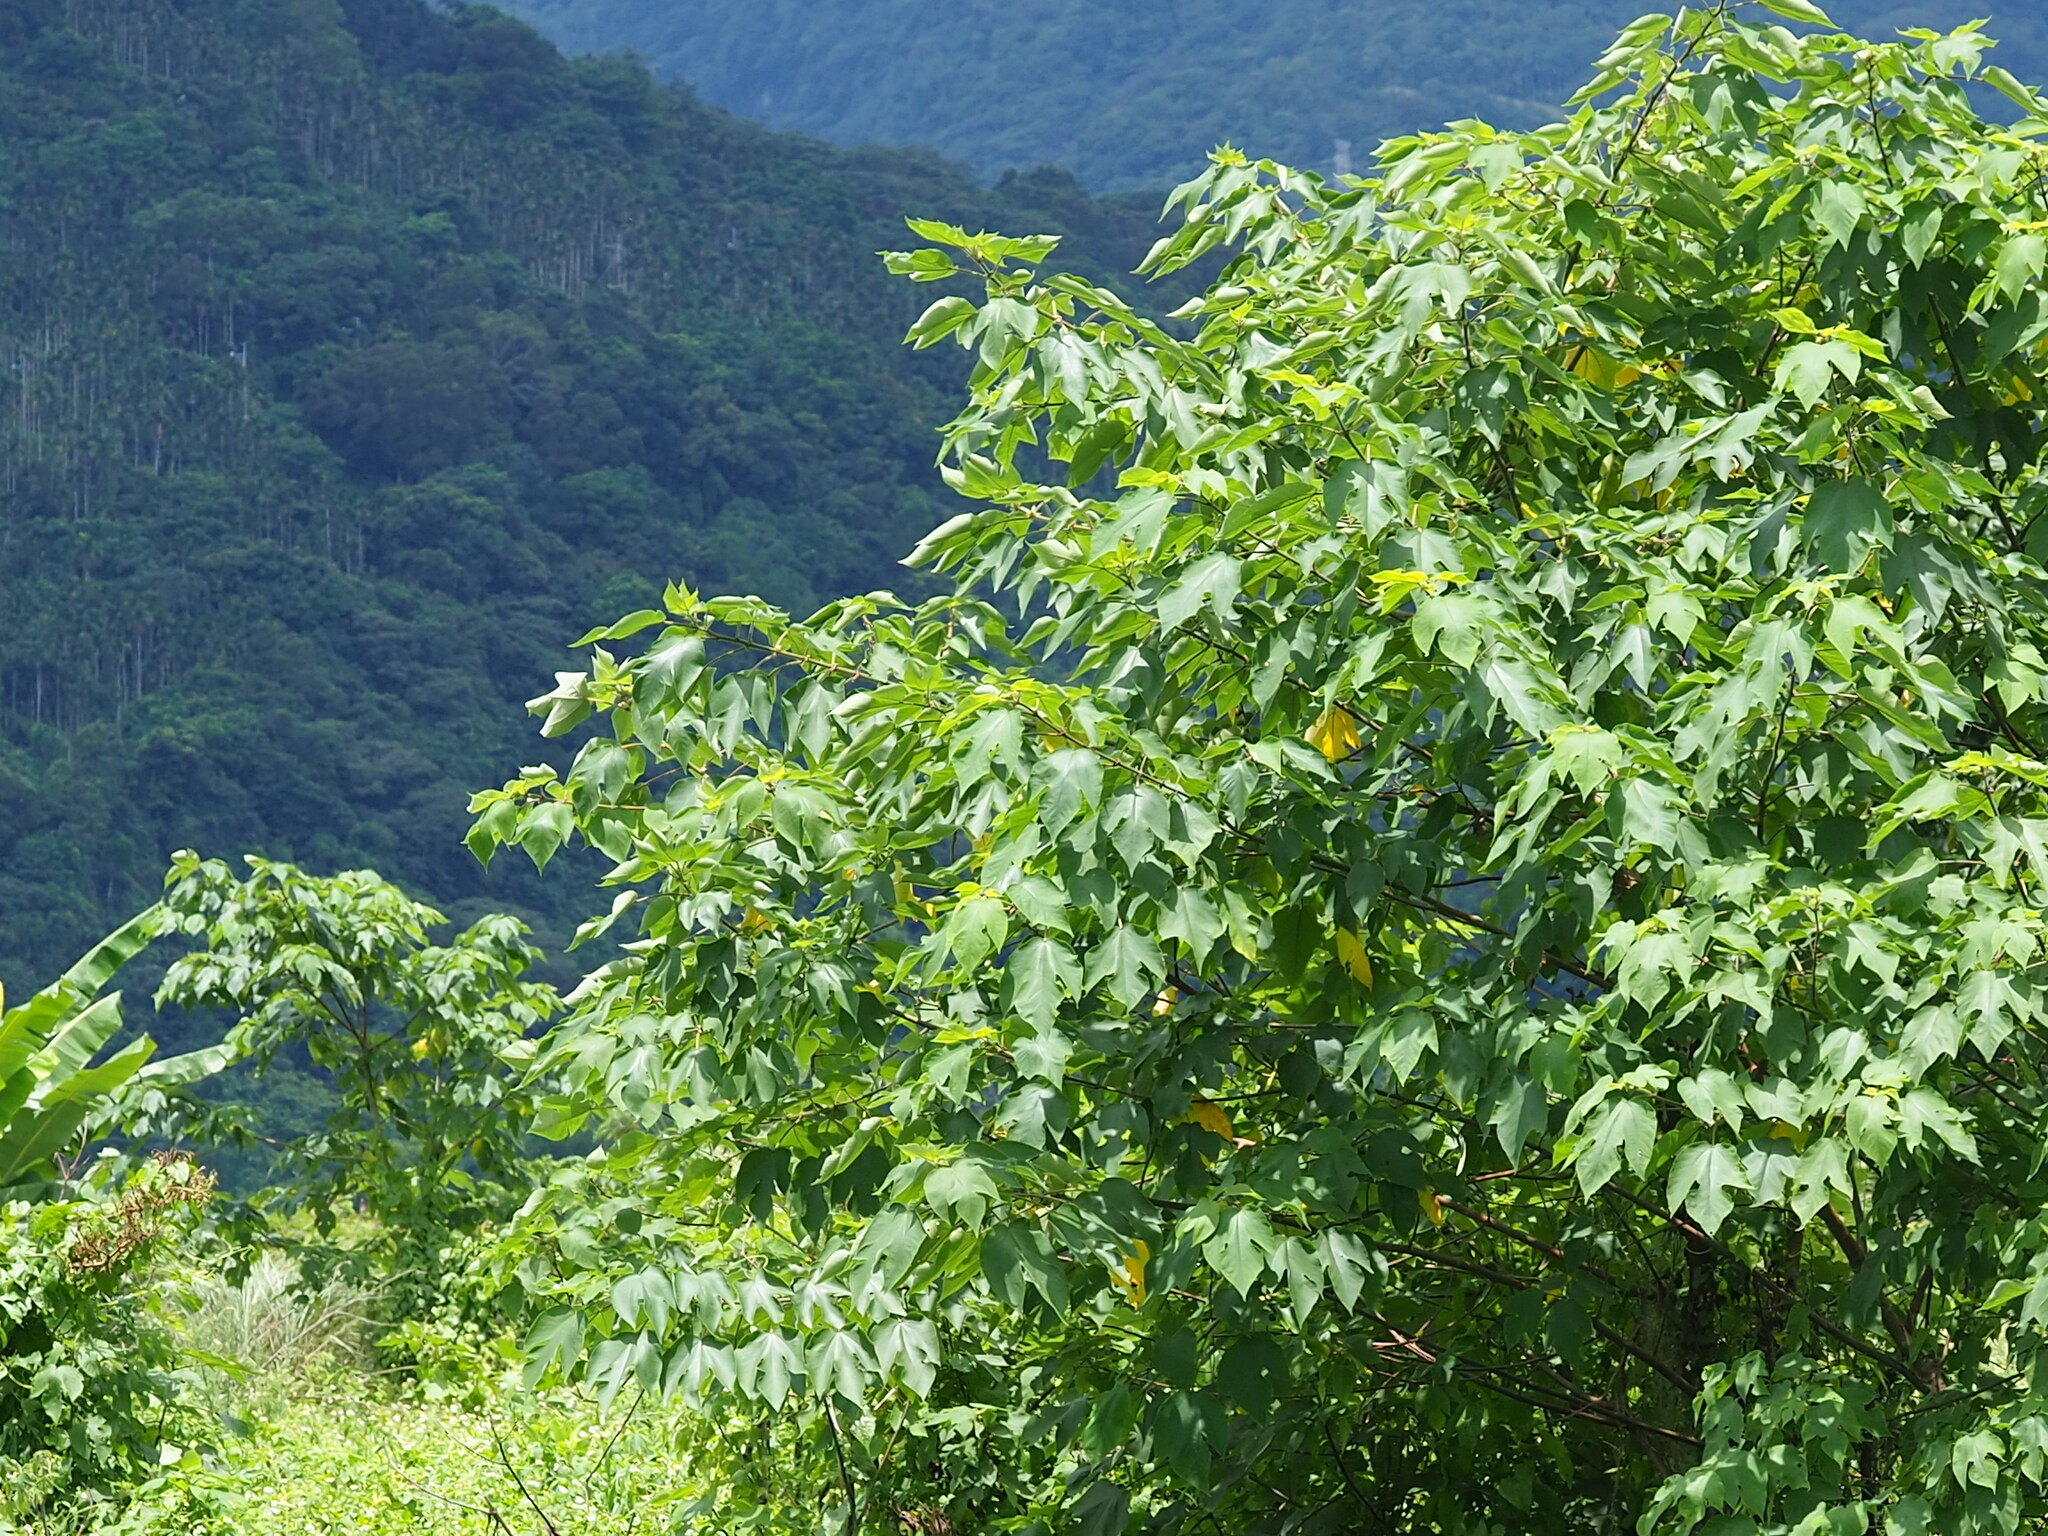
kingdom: Plantae
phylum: Tracheophyta
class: Magnoliopsida
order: Rosales
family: Moraceae
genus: Broussonetia
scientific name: Broussonetia papyrifera
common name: Paper mulberry
